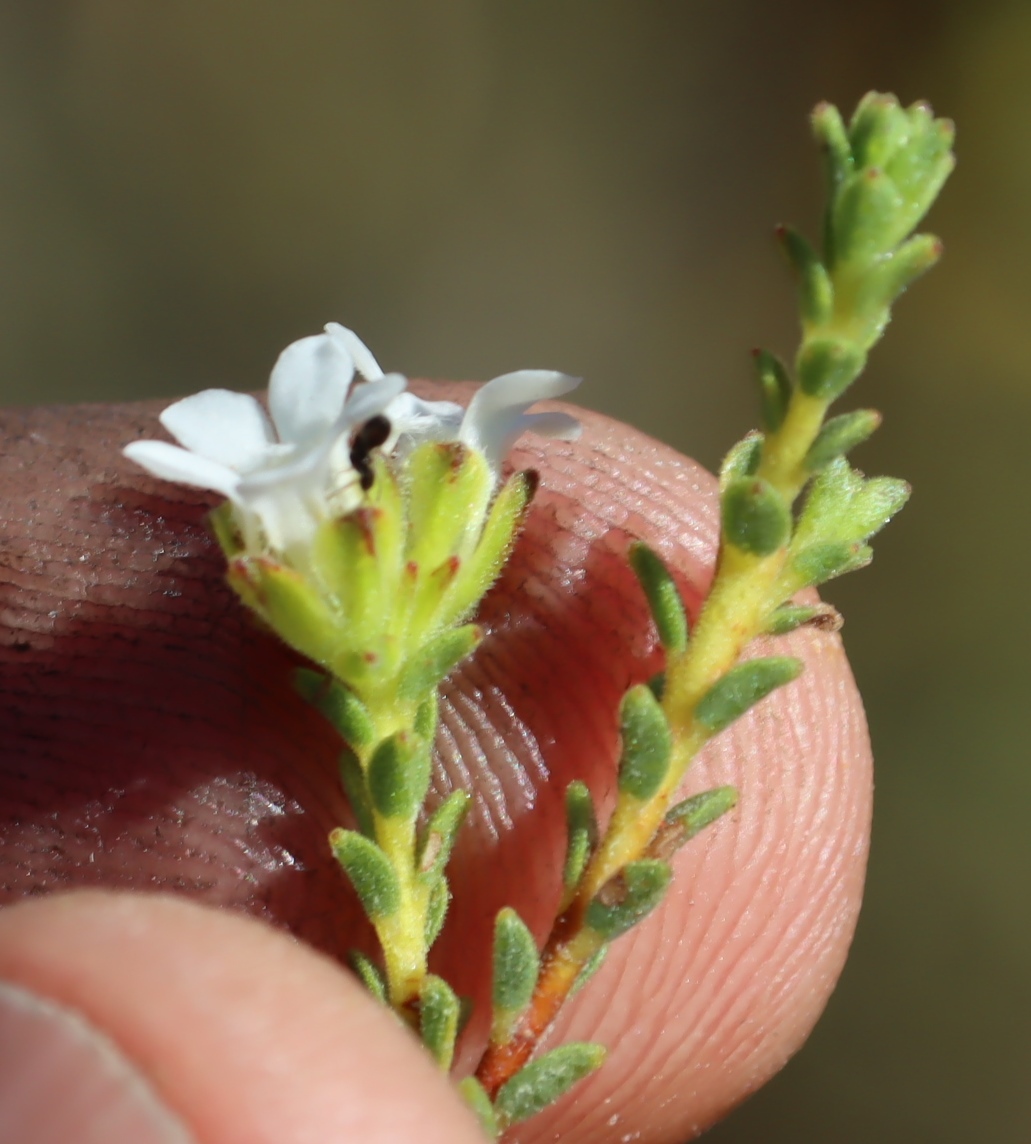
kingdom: Plantae
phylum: Tracheophyta
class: Magnoliopsida
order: Sapindales
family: Rutaceae
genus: Euchaetis
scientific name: Euchaetis vallis-simiae
